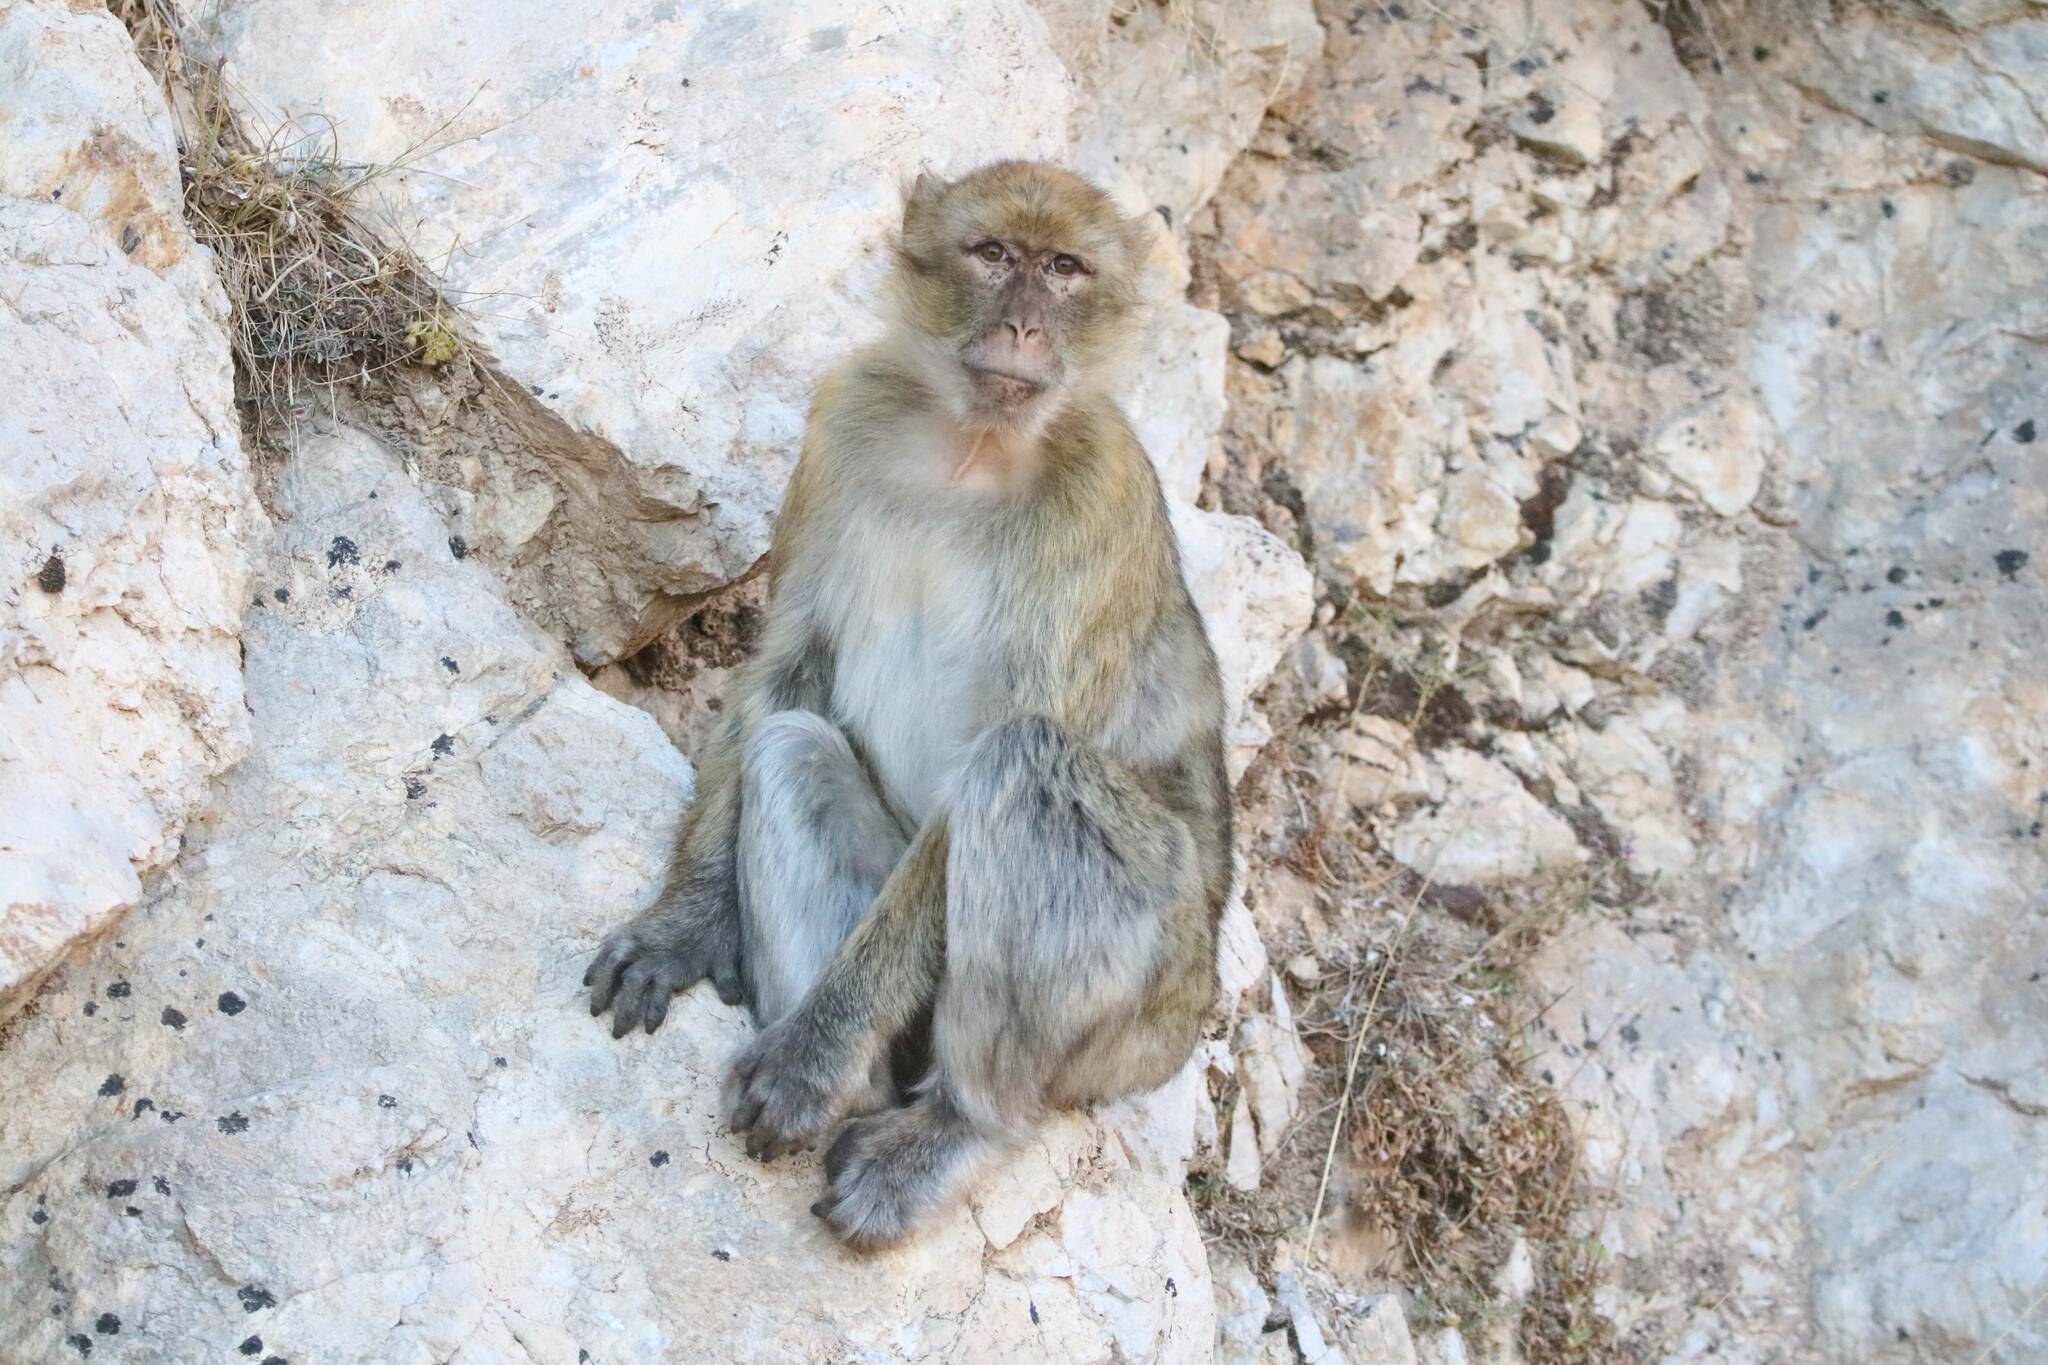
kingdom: Animalia
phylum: Chordata
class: Mammalia
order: Primates
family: Cercopithecidae
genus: Macaca
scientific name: Macaca sylvanus
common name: Barbary macaque
